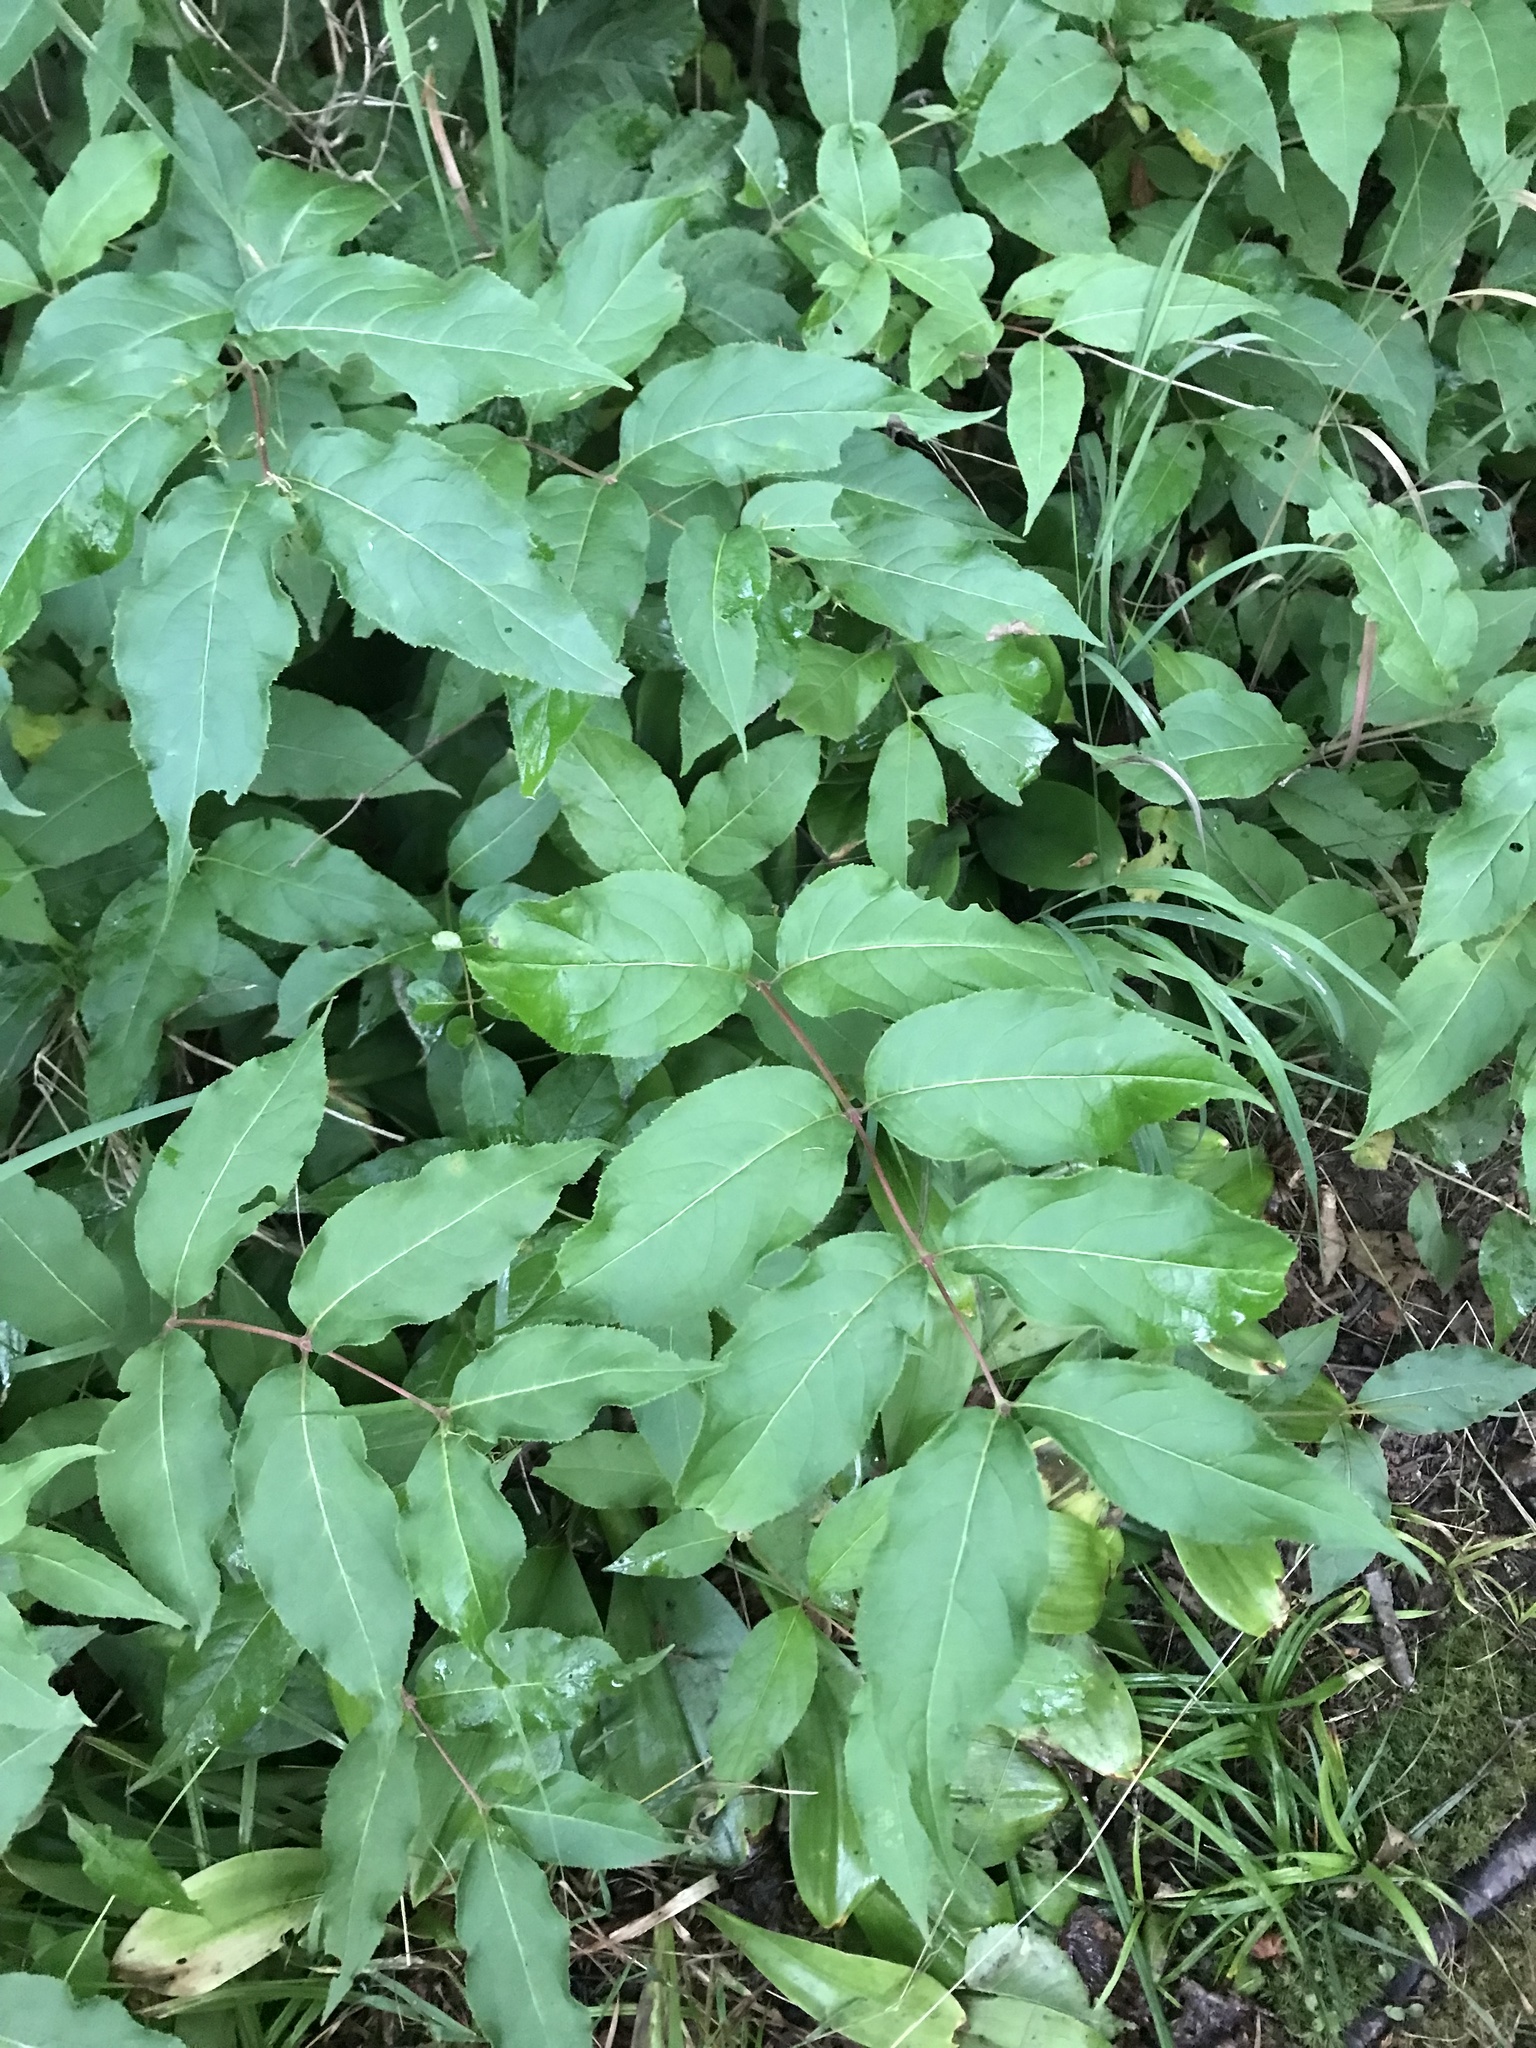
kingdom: Plantae
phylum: Tracheophyta
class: Magnoliopsida
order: Dipsacales
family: Caprifoliaceae
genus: Diervilla
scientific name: Diervilla lonicera
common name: Bush-honeysuckle
